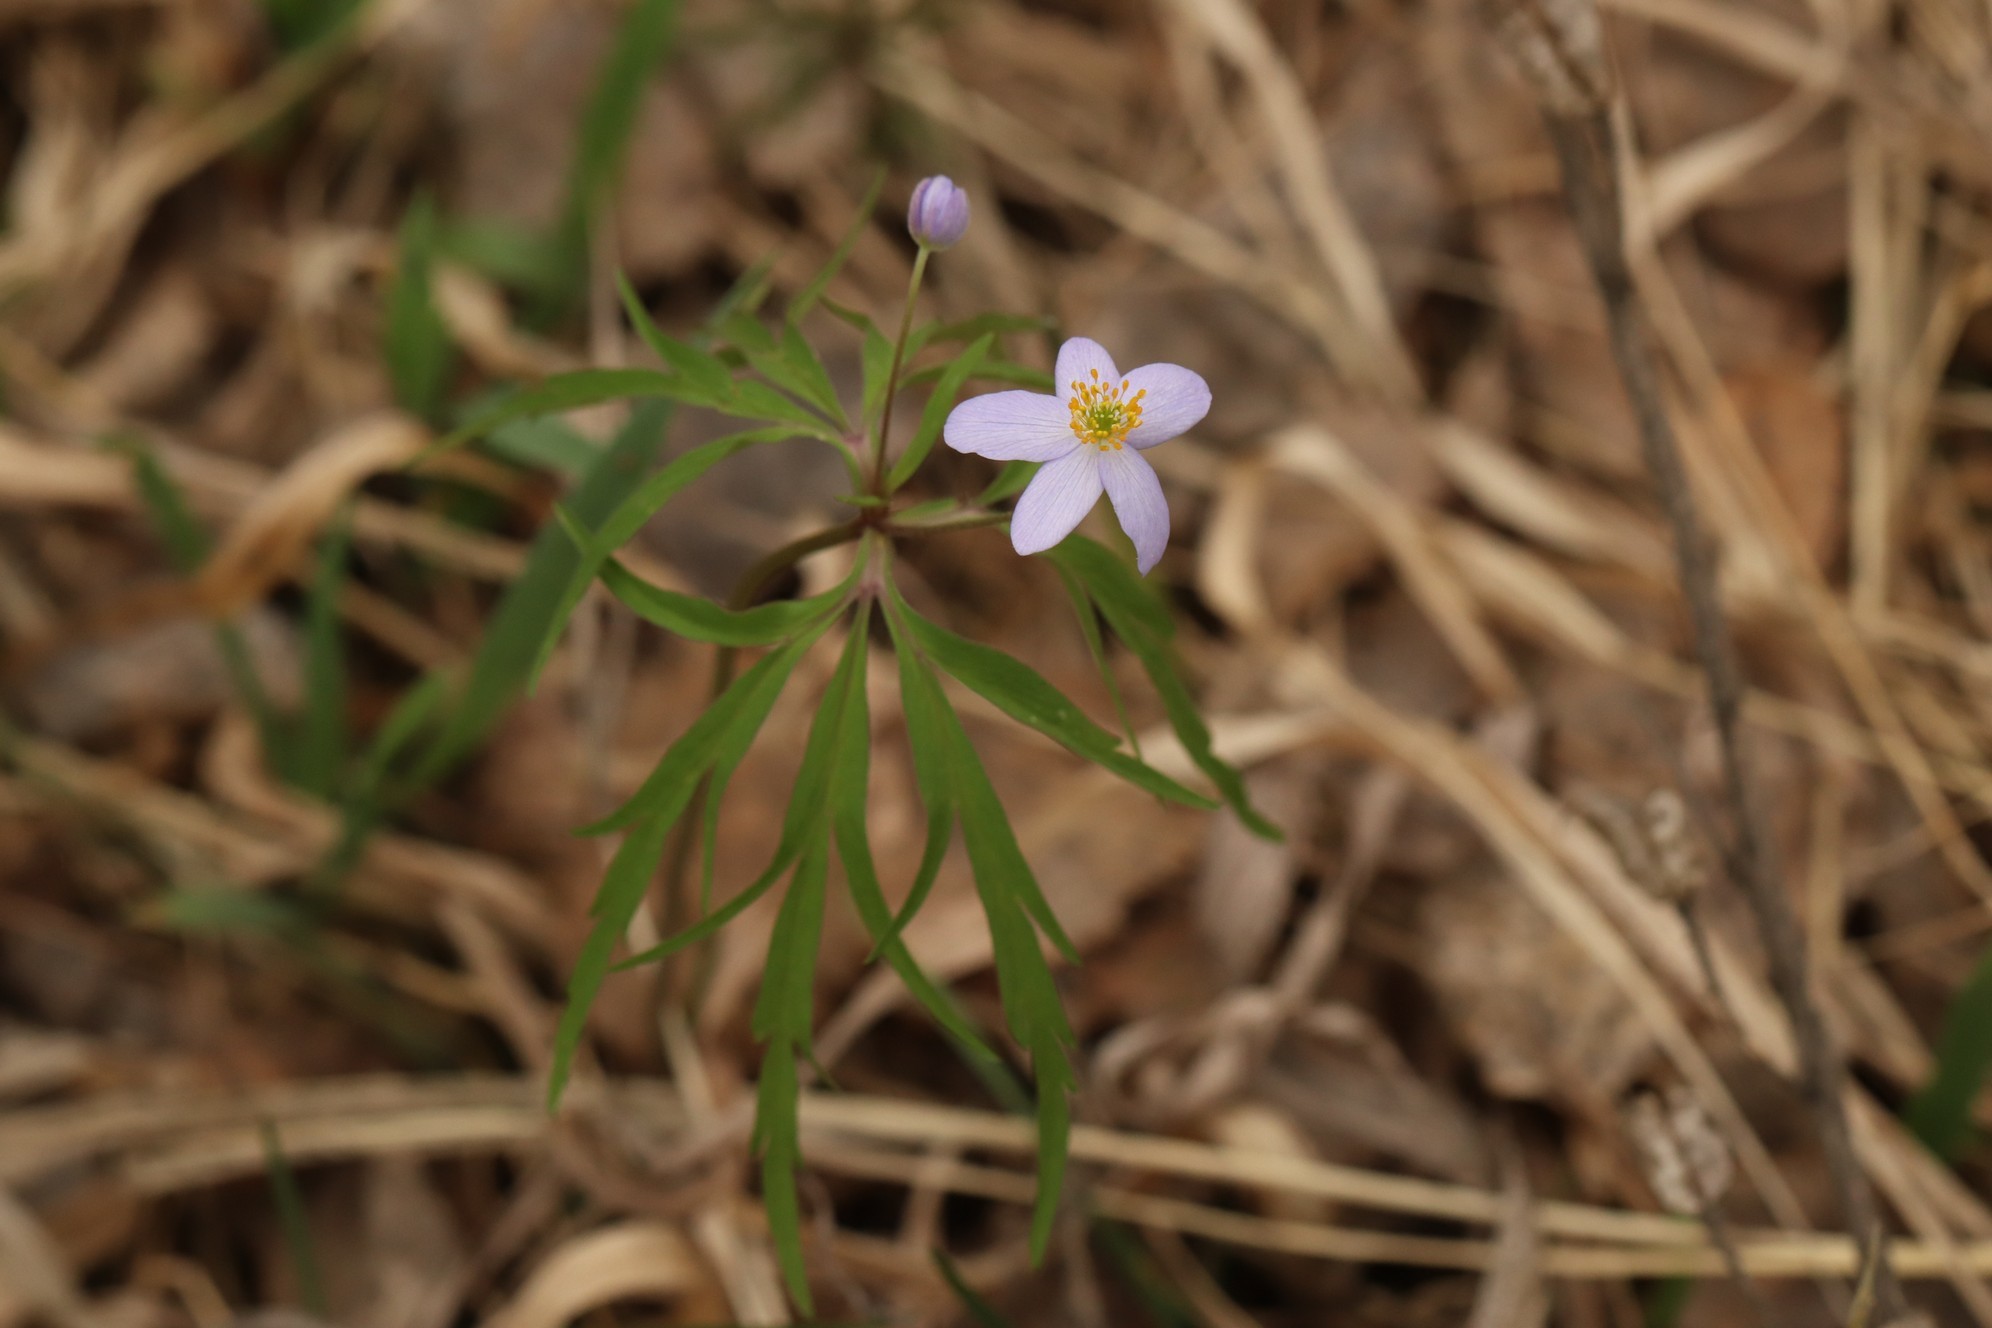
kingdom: Plantae
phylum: Tracheophyta
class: Magnoliopsida
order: Ranunculales
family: Ranunculaceae
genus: Anemone
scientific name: Anemone caerulea
